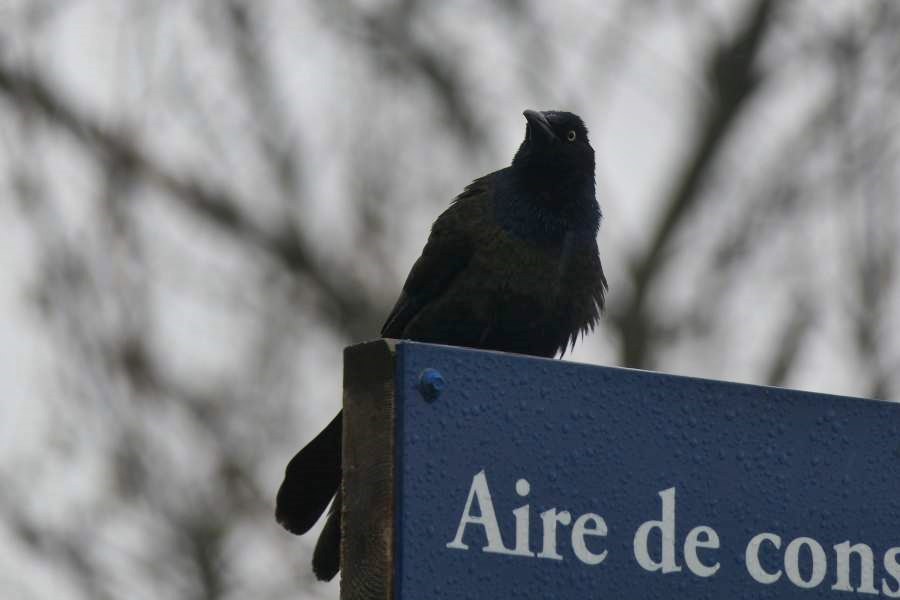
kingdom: Animalia
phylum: Chordata
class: Aves
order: Passeriformes
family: Icteridae
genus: Quiscalus
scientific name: Quiscalus quiscula
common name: Common grackle
